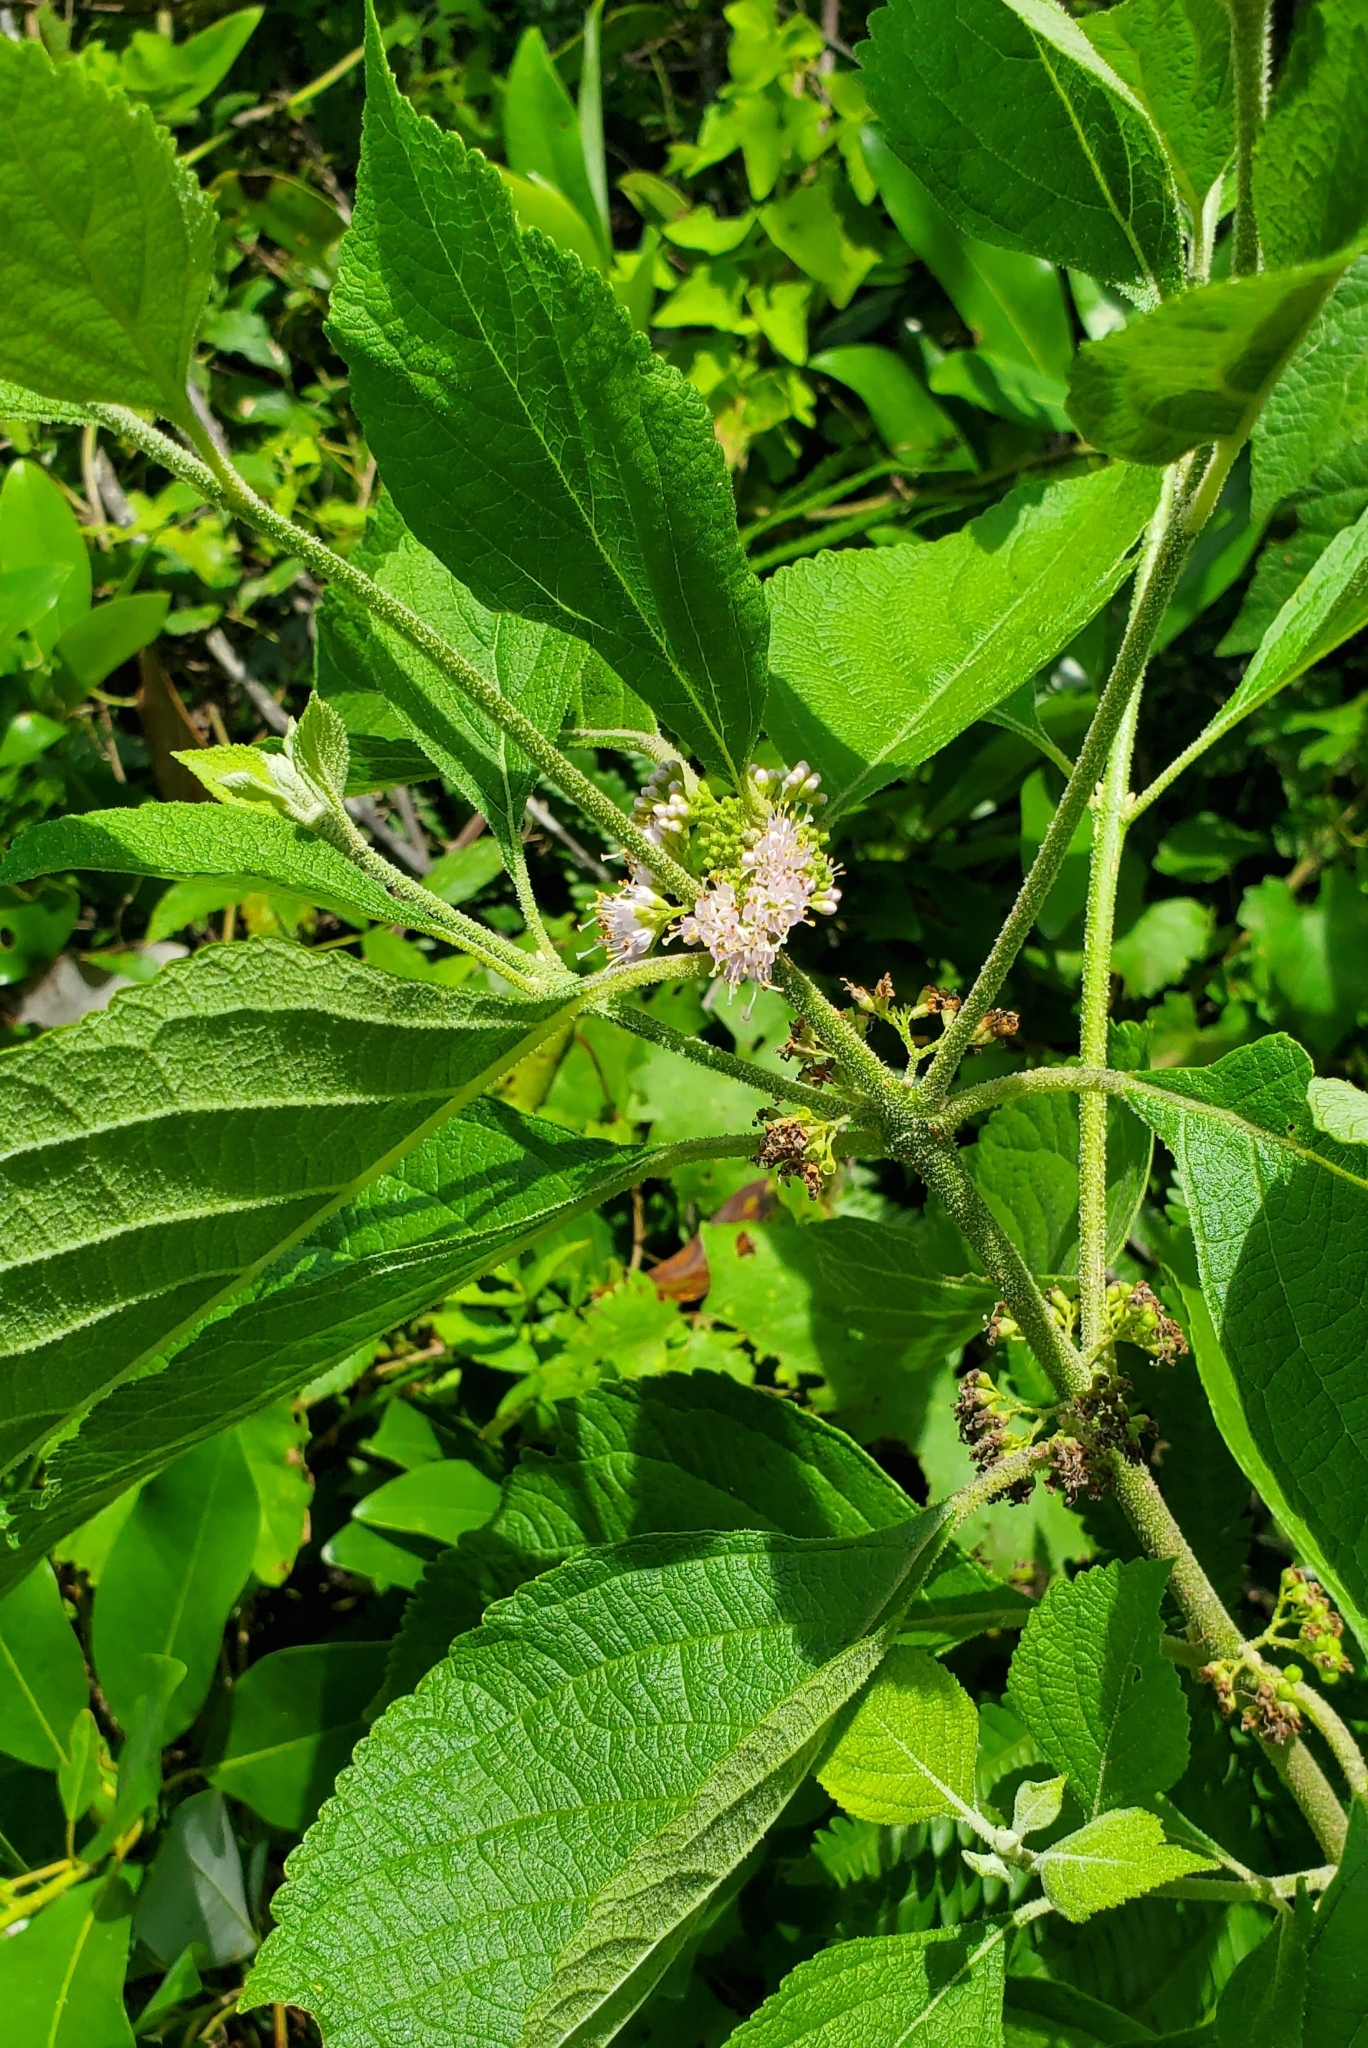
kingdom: Plantae
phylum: Tracheophyta
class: Magnoliopsida
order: Lamiales
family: Lamiaceae
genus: Callicarpa
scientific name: Callicarpa americana
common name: American beautyberry
